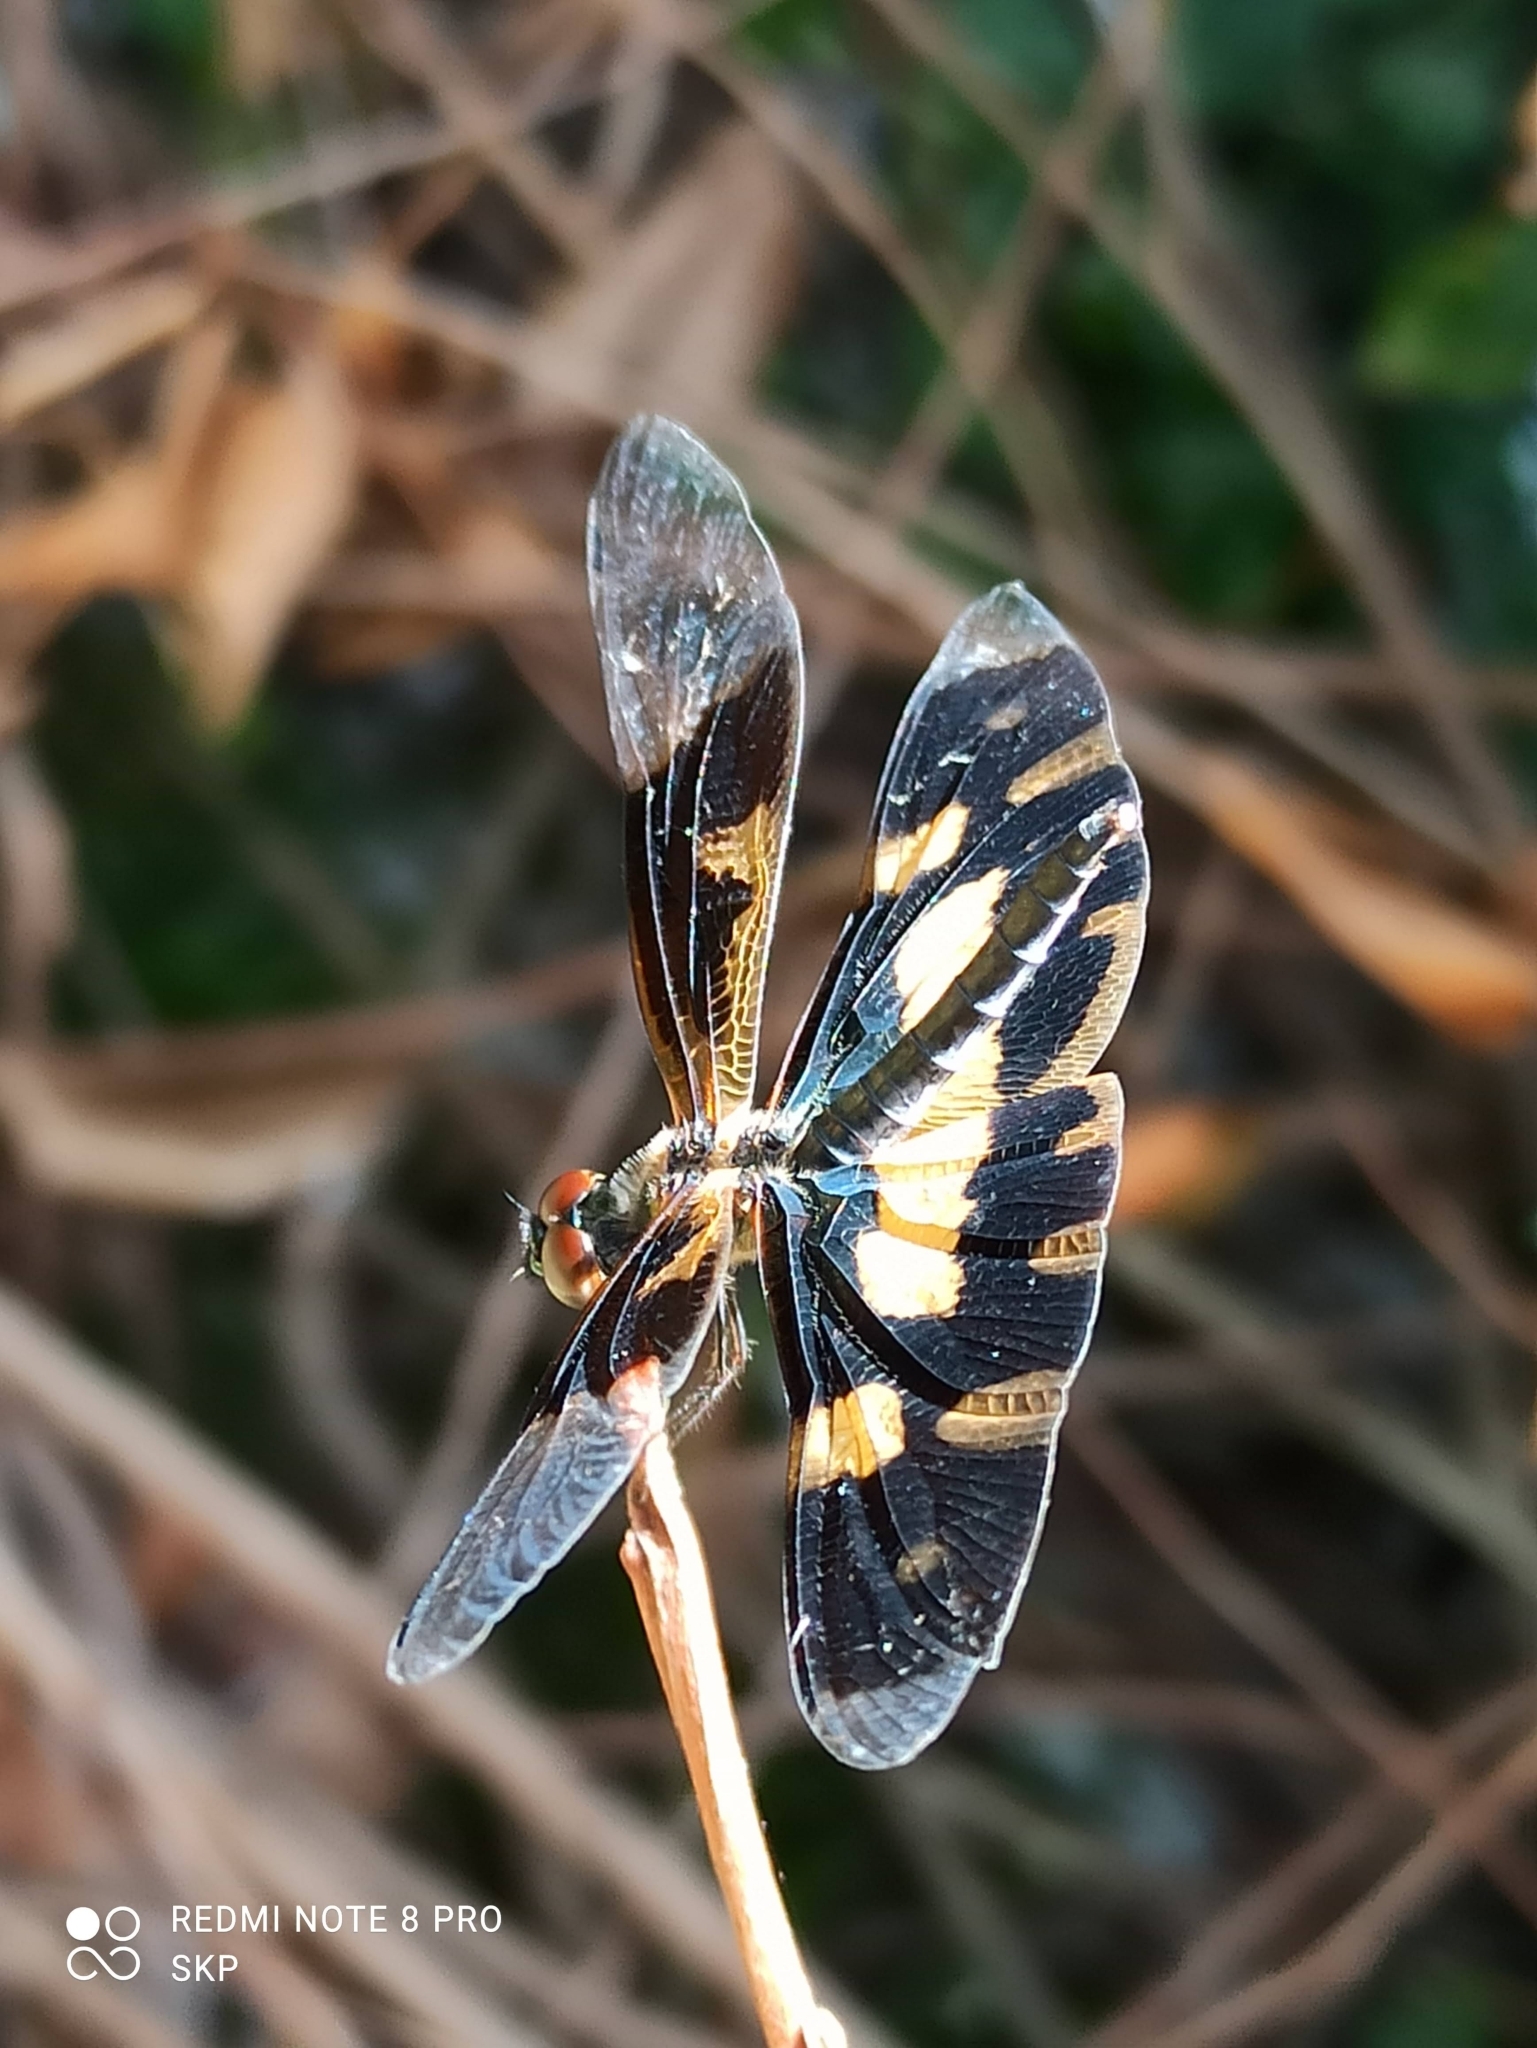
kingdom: Animalia
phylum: Arthropoda
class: Insecta
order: Odonata
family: Libellulidae
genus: Rhyothemis
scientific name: Rhyothemis variegata
